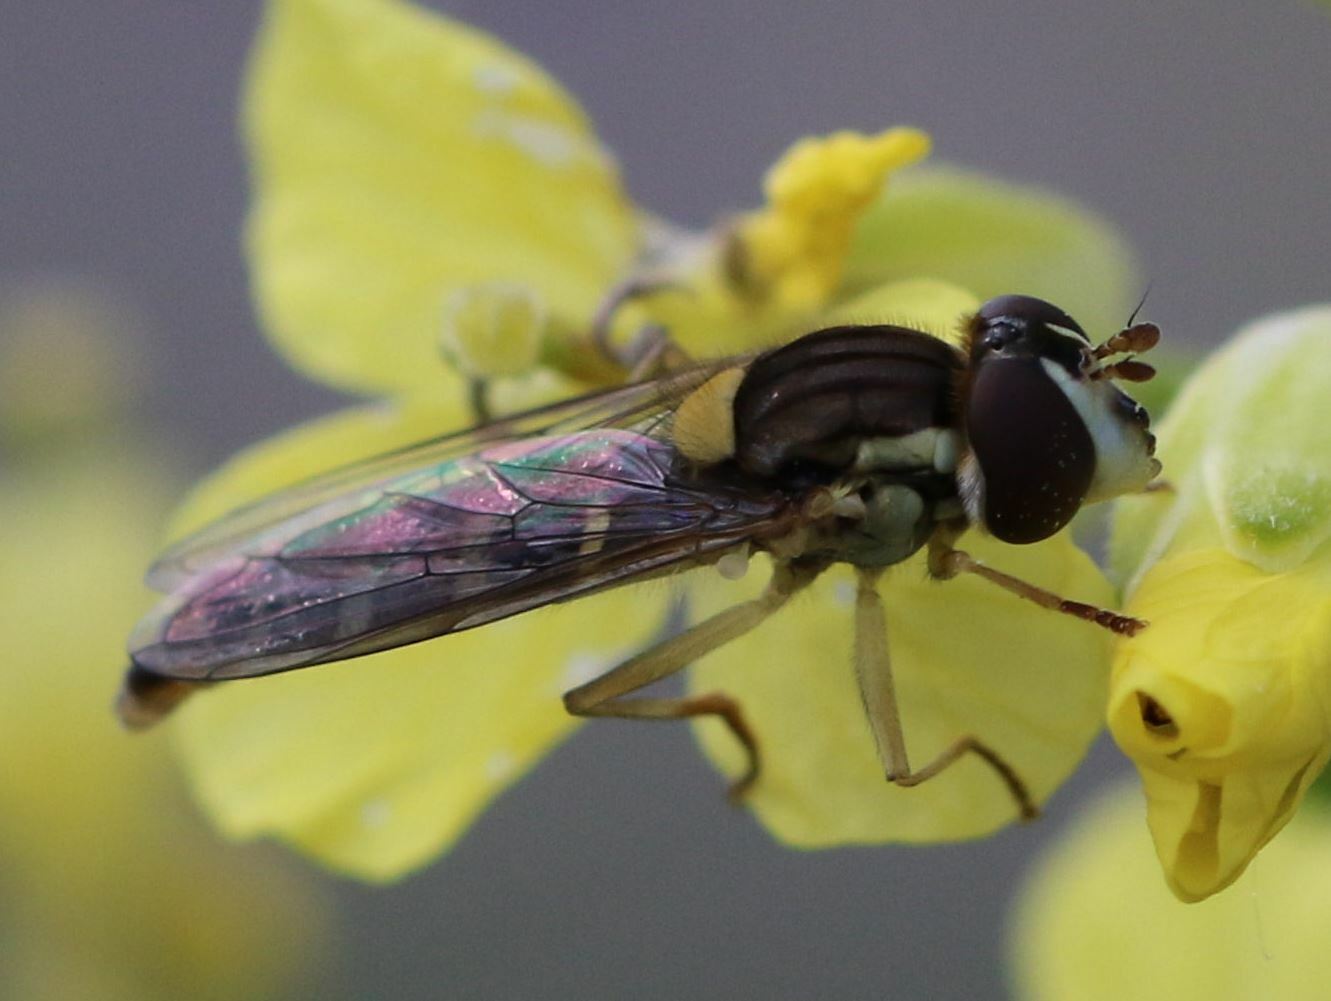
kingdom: Animalia
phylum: Arthropoda
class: Insecta
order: Diptera
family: Syrphidae
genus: Sphaerophoria
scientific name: Sphaerophoria
